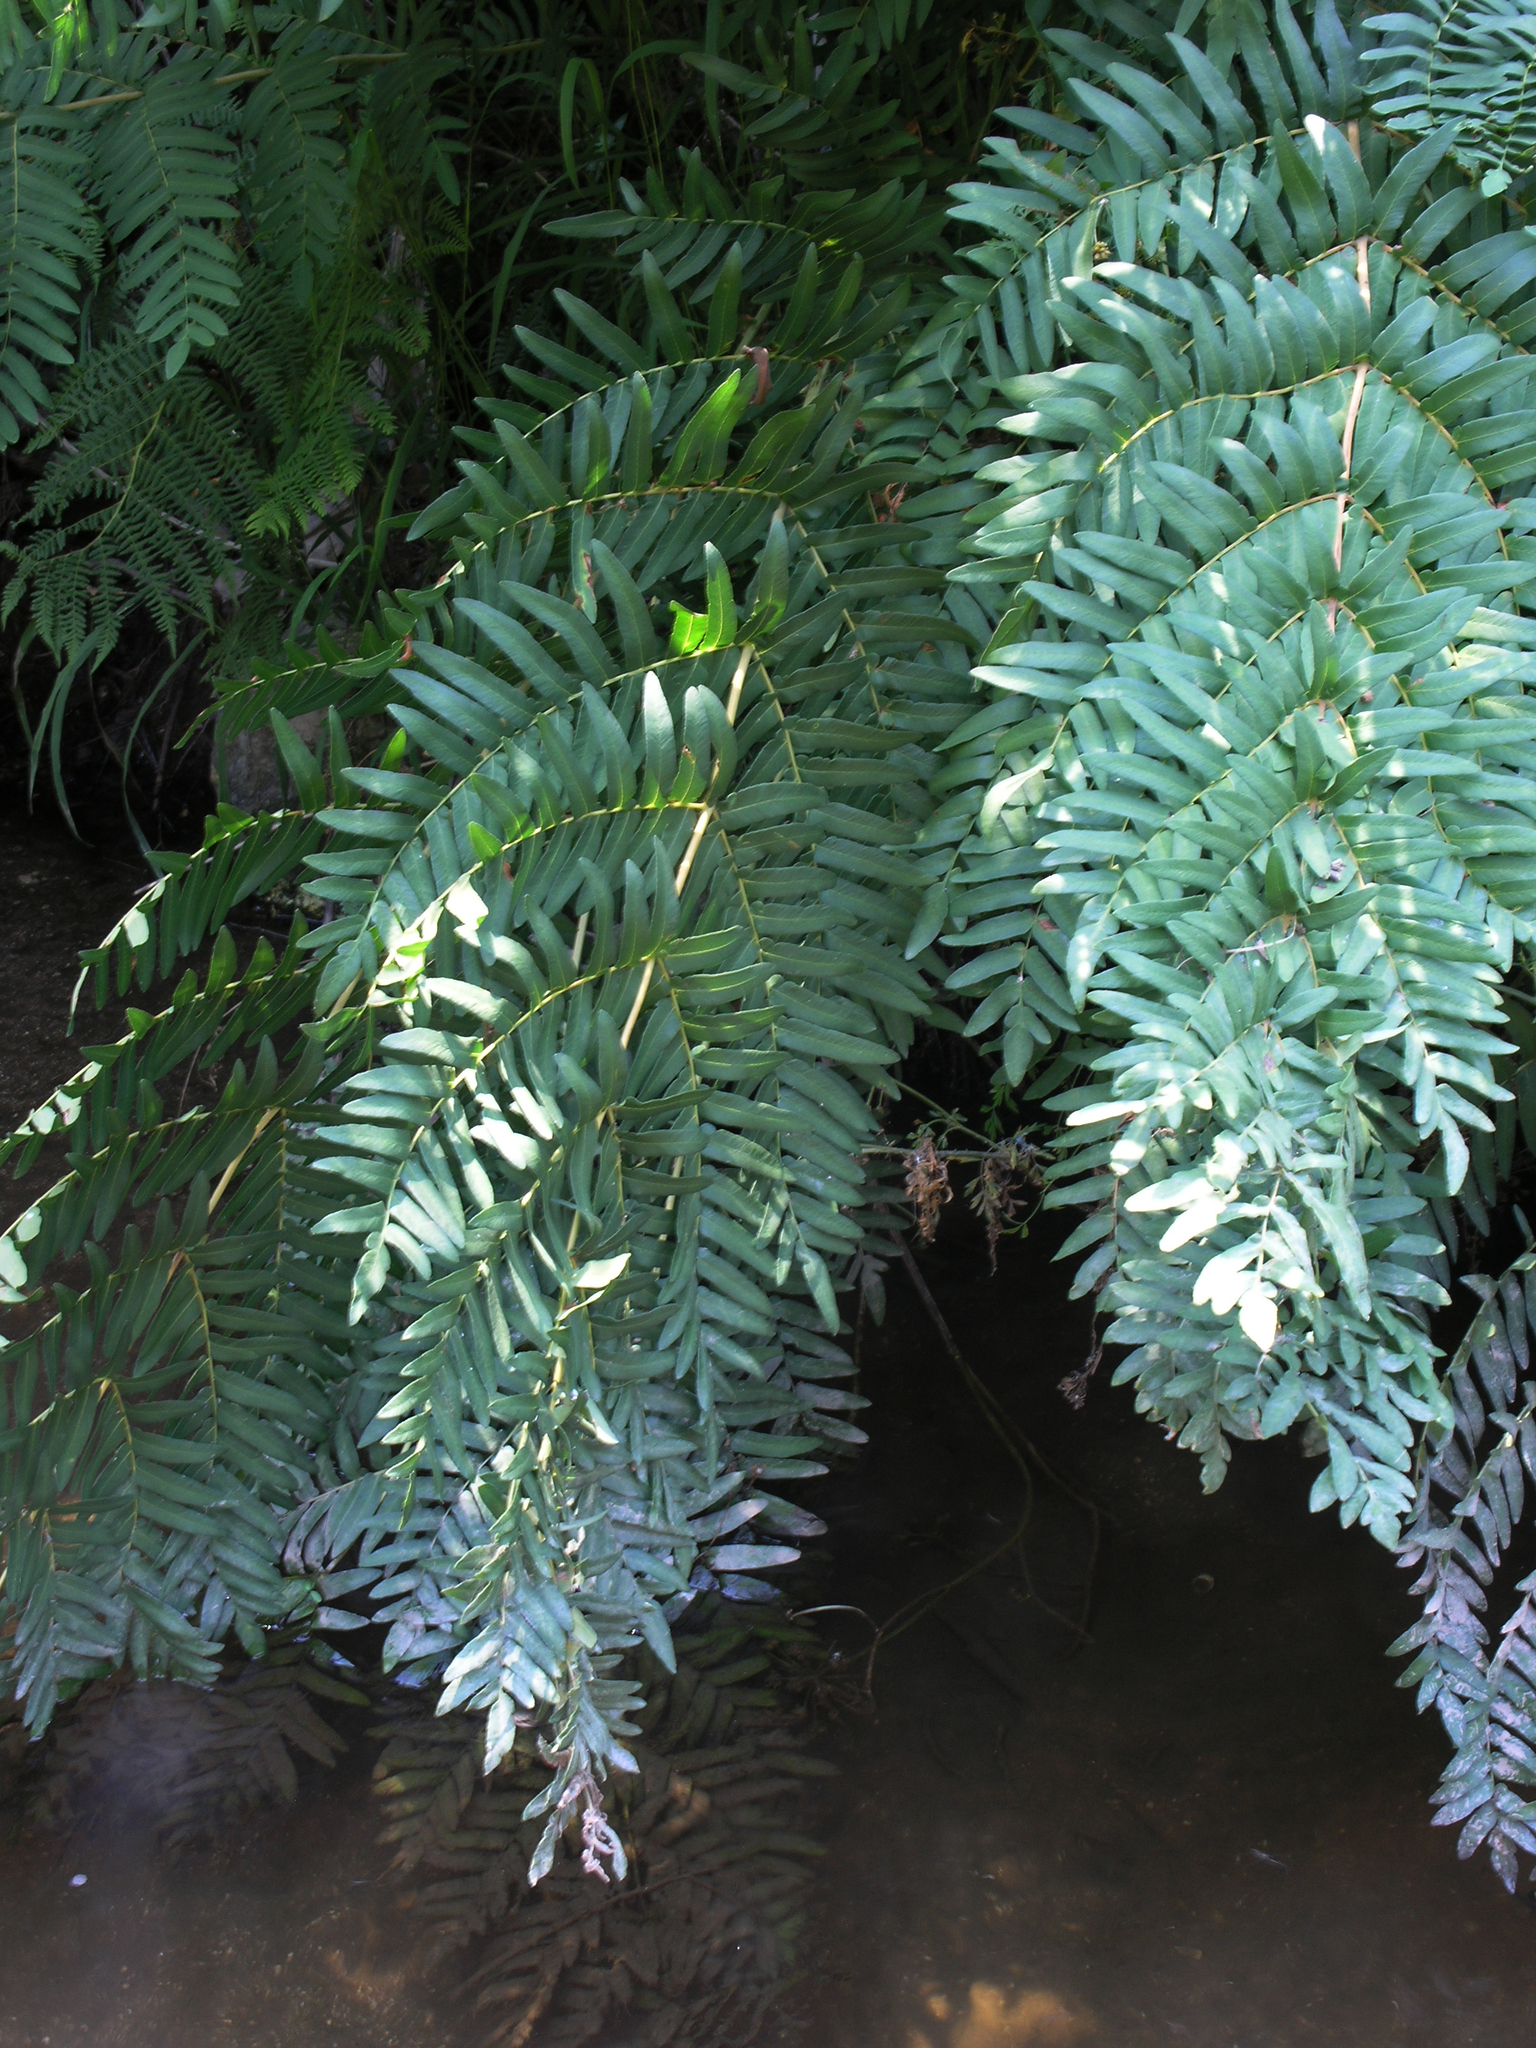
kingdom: Plantae
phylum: Tracheophyta
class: Polypodiopsida
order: Osmundales
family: Osmundaceae
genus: Osmunda
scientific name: Osmunda regalis
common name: Royal fern
